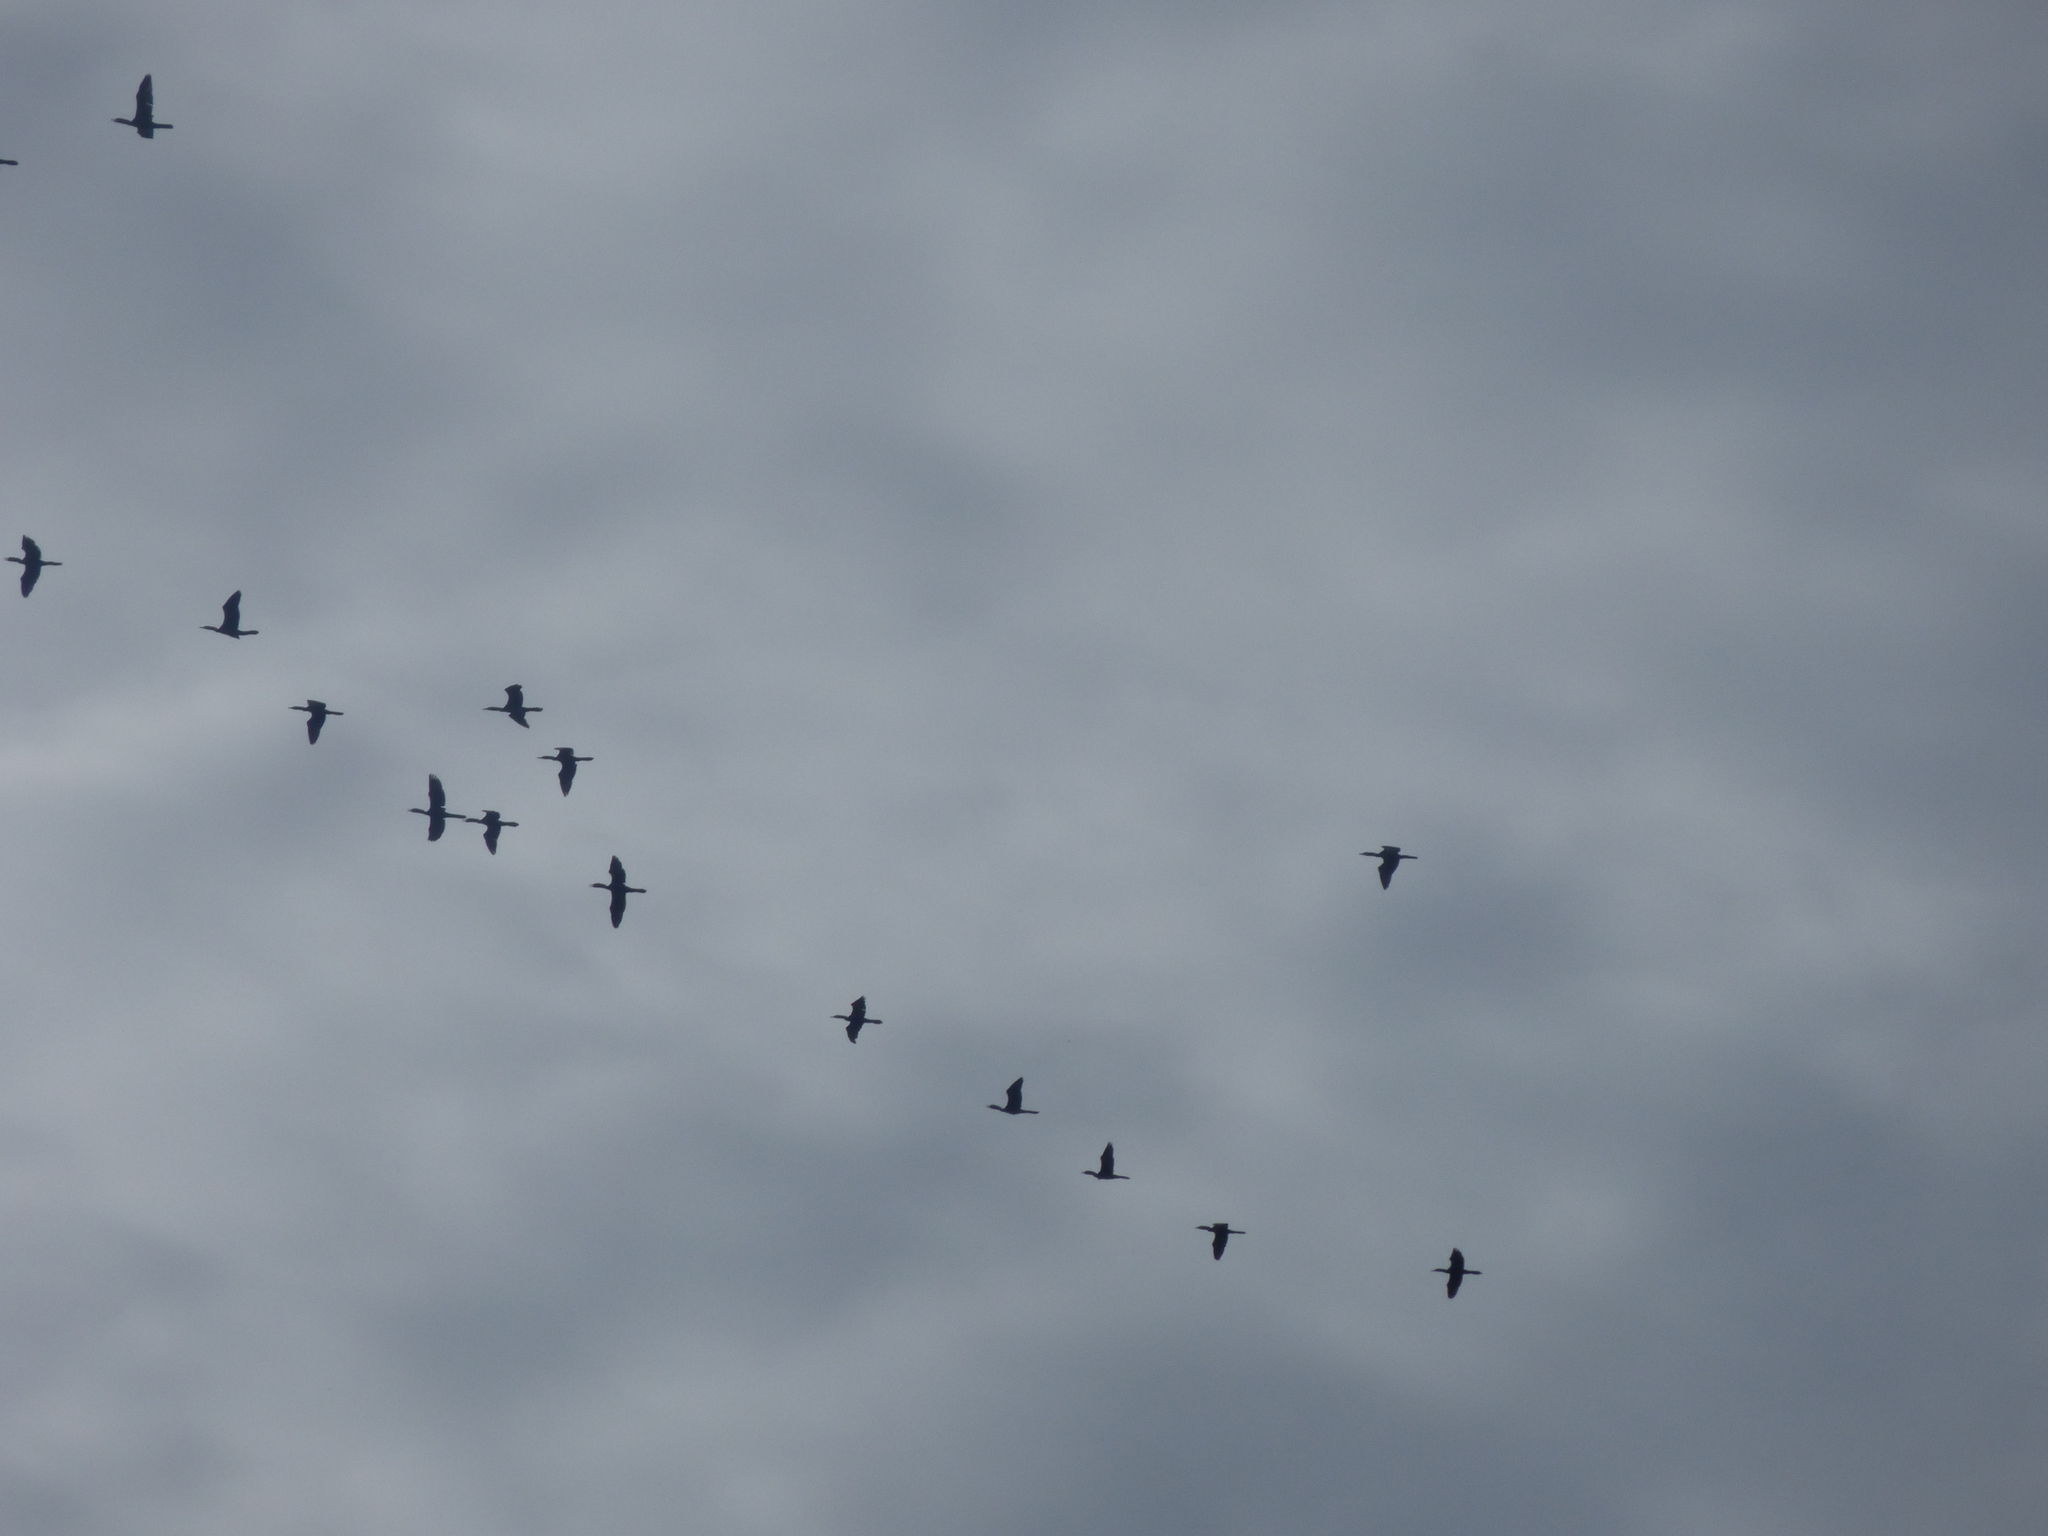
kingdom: Animalia
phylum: Chordata
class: Aves
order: Suliformes
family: Phalacrocoracidae
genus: Phalacrocorax
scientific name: Phalacrocorax brasilianus
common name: Neotropic cormorant
